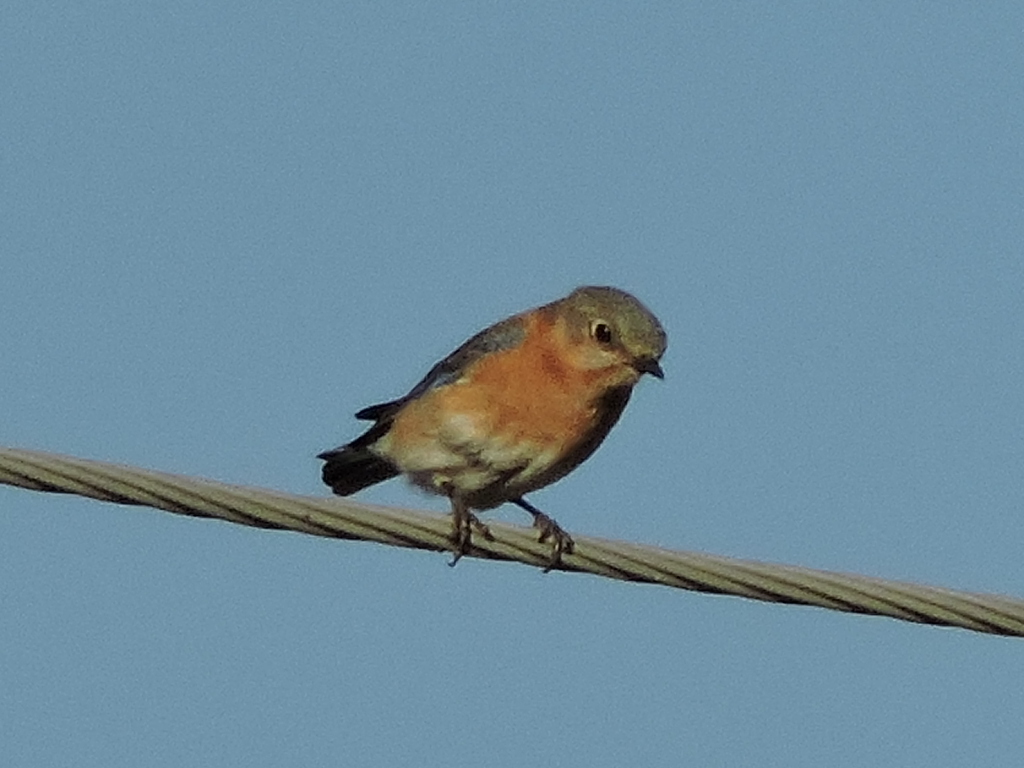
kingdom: Animalia
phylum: Chordata
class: Aves
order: Passeriformes
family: Turdidae
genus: Sialia
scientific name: Sialia sialis
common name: Eastern bluebird
